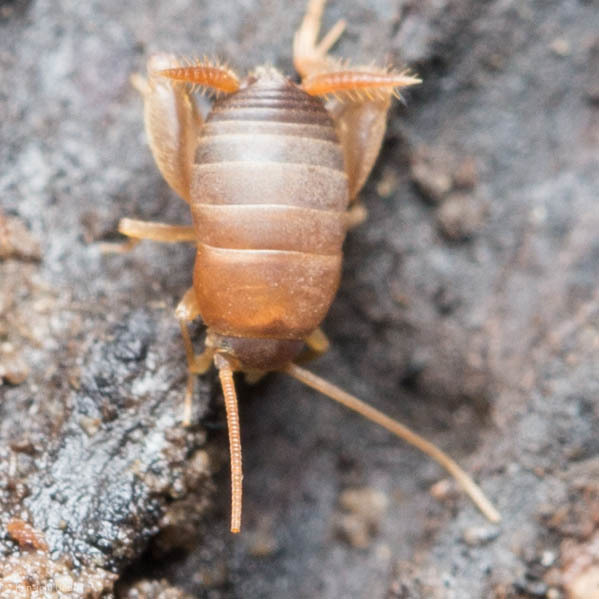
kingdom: Animalia
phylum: Arthropoda
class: Insecta
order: Orthoptera
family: Myrmecophilidae
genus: Myrmecophilus
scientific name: Myrmecophilus oregonensis
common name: Oregon ant cricket
